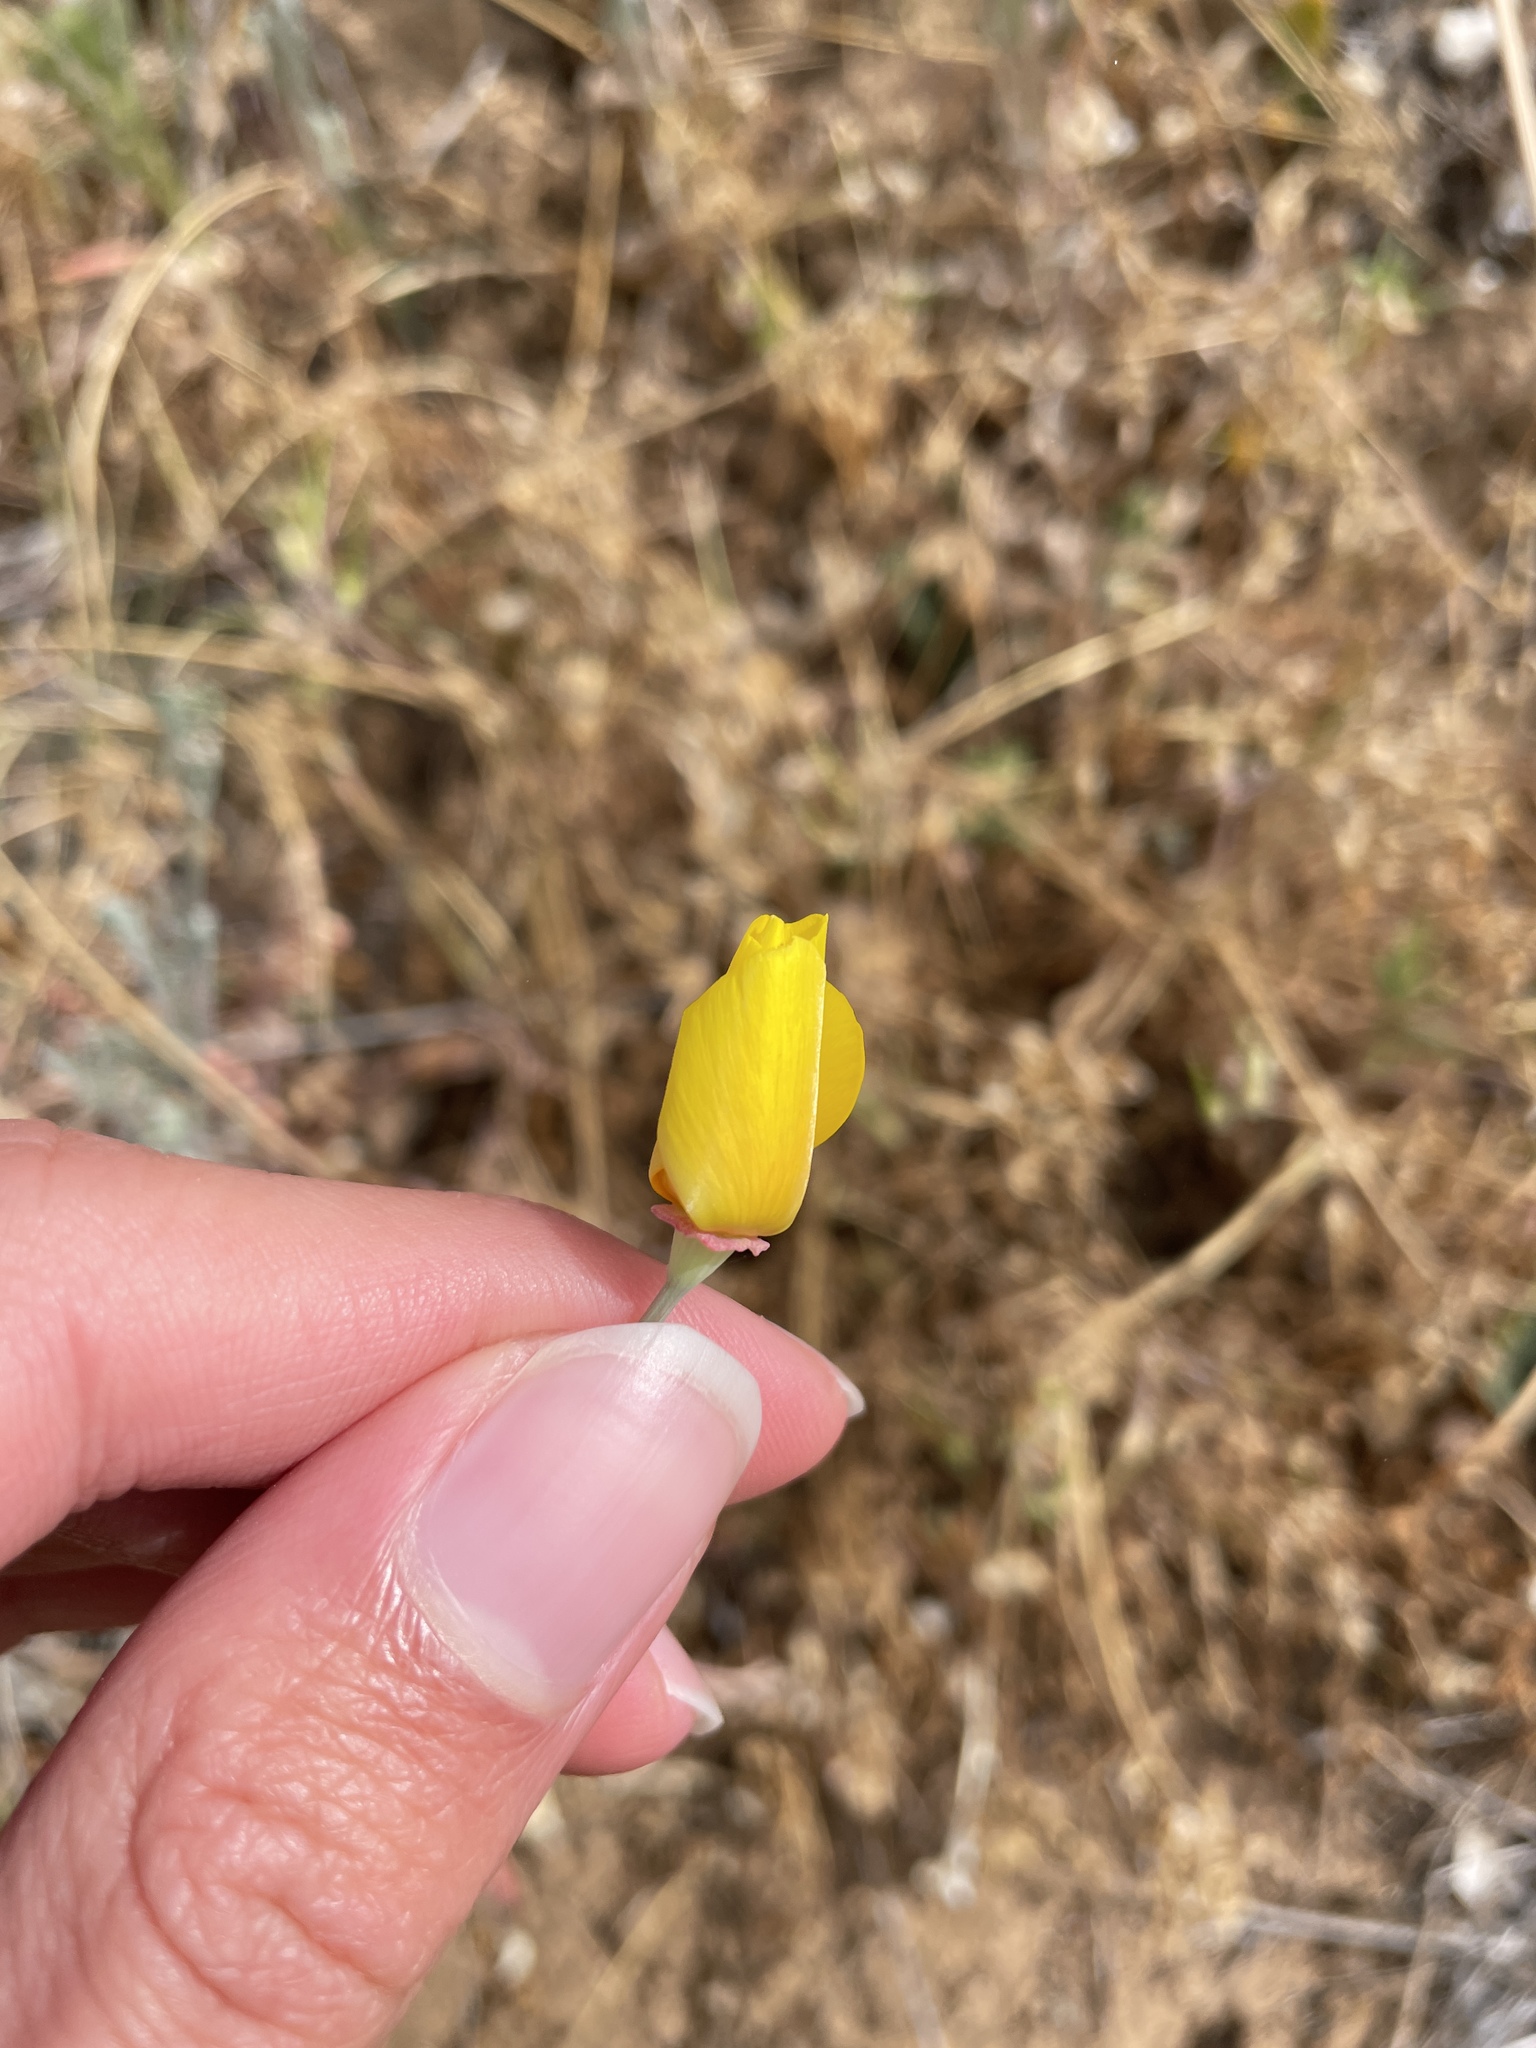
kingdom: Plantae
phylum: Tracheophyta
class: Magnoliopsida
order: Ranunculales
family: Papaveraceae
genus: Eschscholzia
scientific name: Eschscholzia californica
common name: California poppy
